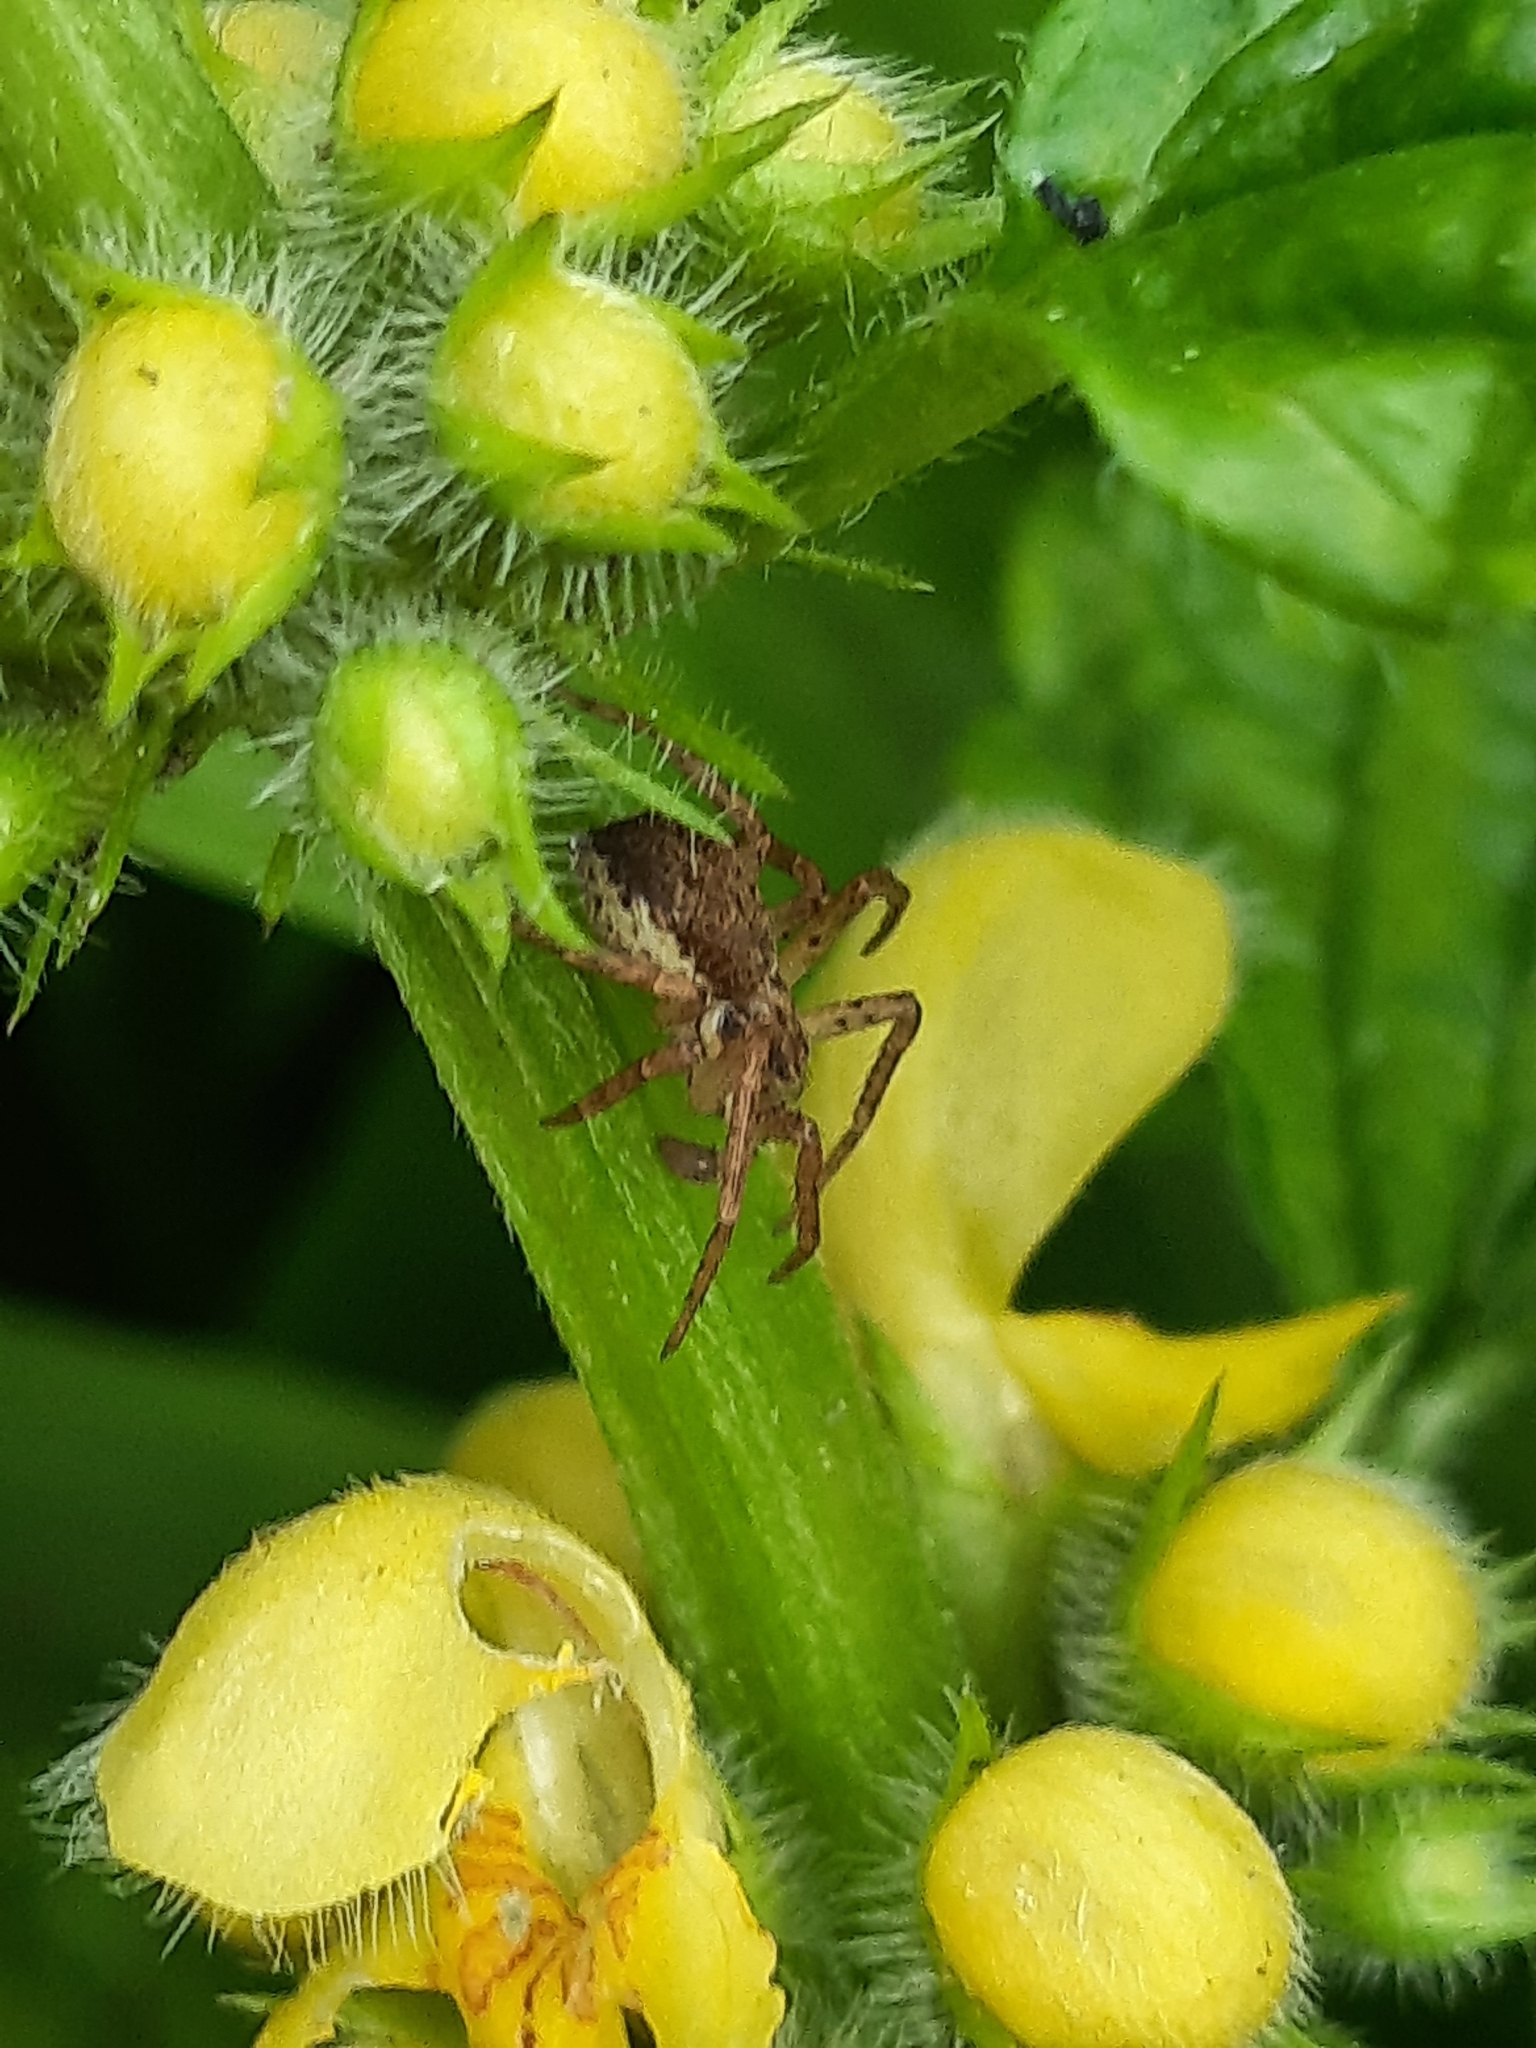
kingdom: Animalia
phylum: Arthropoda
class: Arachnida
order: Araneae
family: Philodromidae
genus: Philodromus
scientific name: Philodromus dispar
